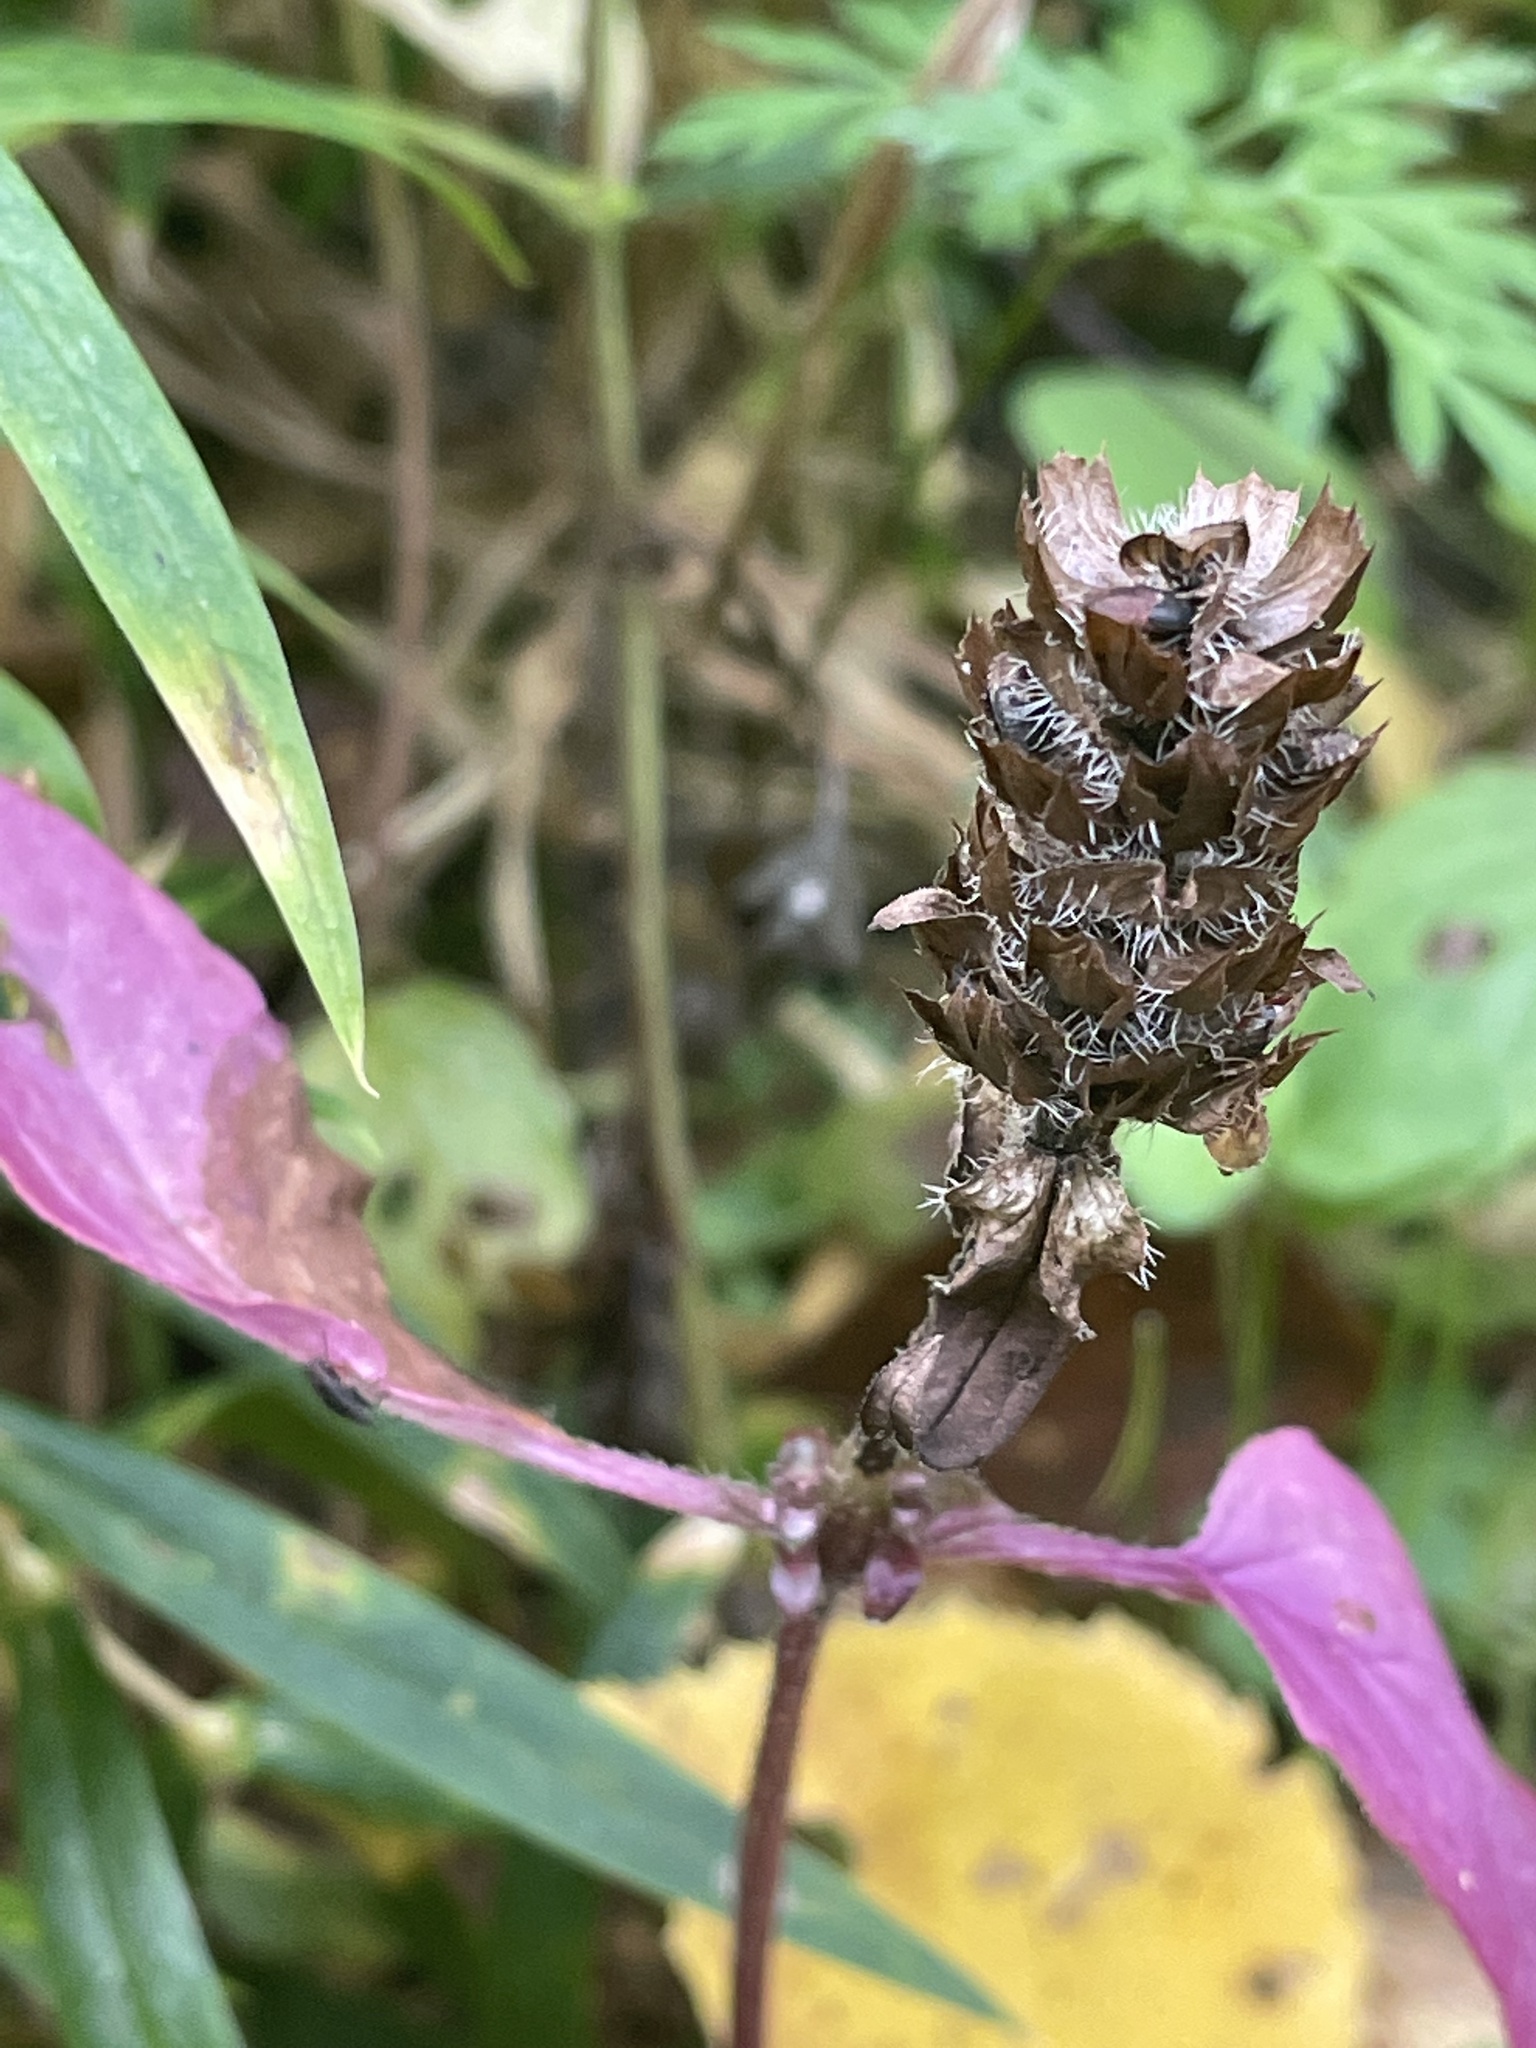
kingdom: Plantae
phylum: Tracheophyta
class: Magnoliopsida
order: Lamiales
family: Lamiaceae
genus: Prunella
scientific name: Prunella vulgaris
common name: Heal-all
